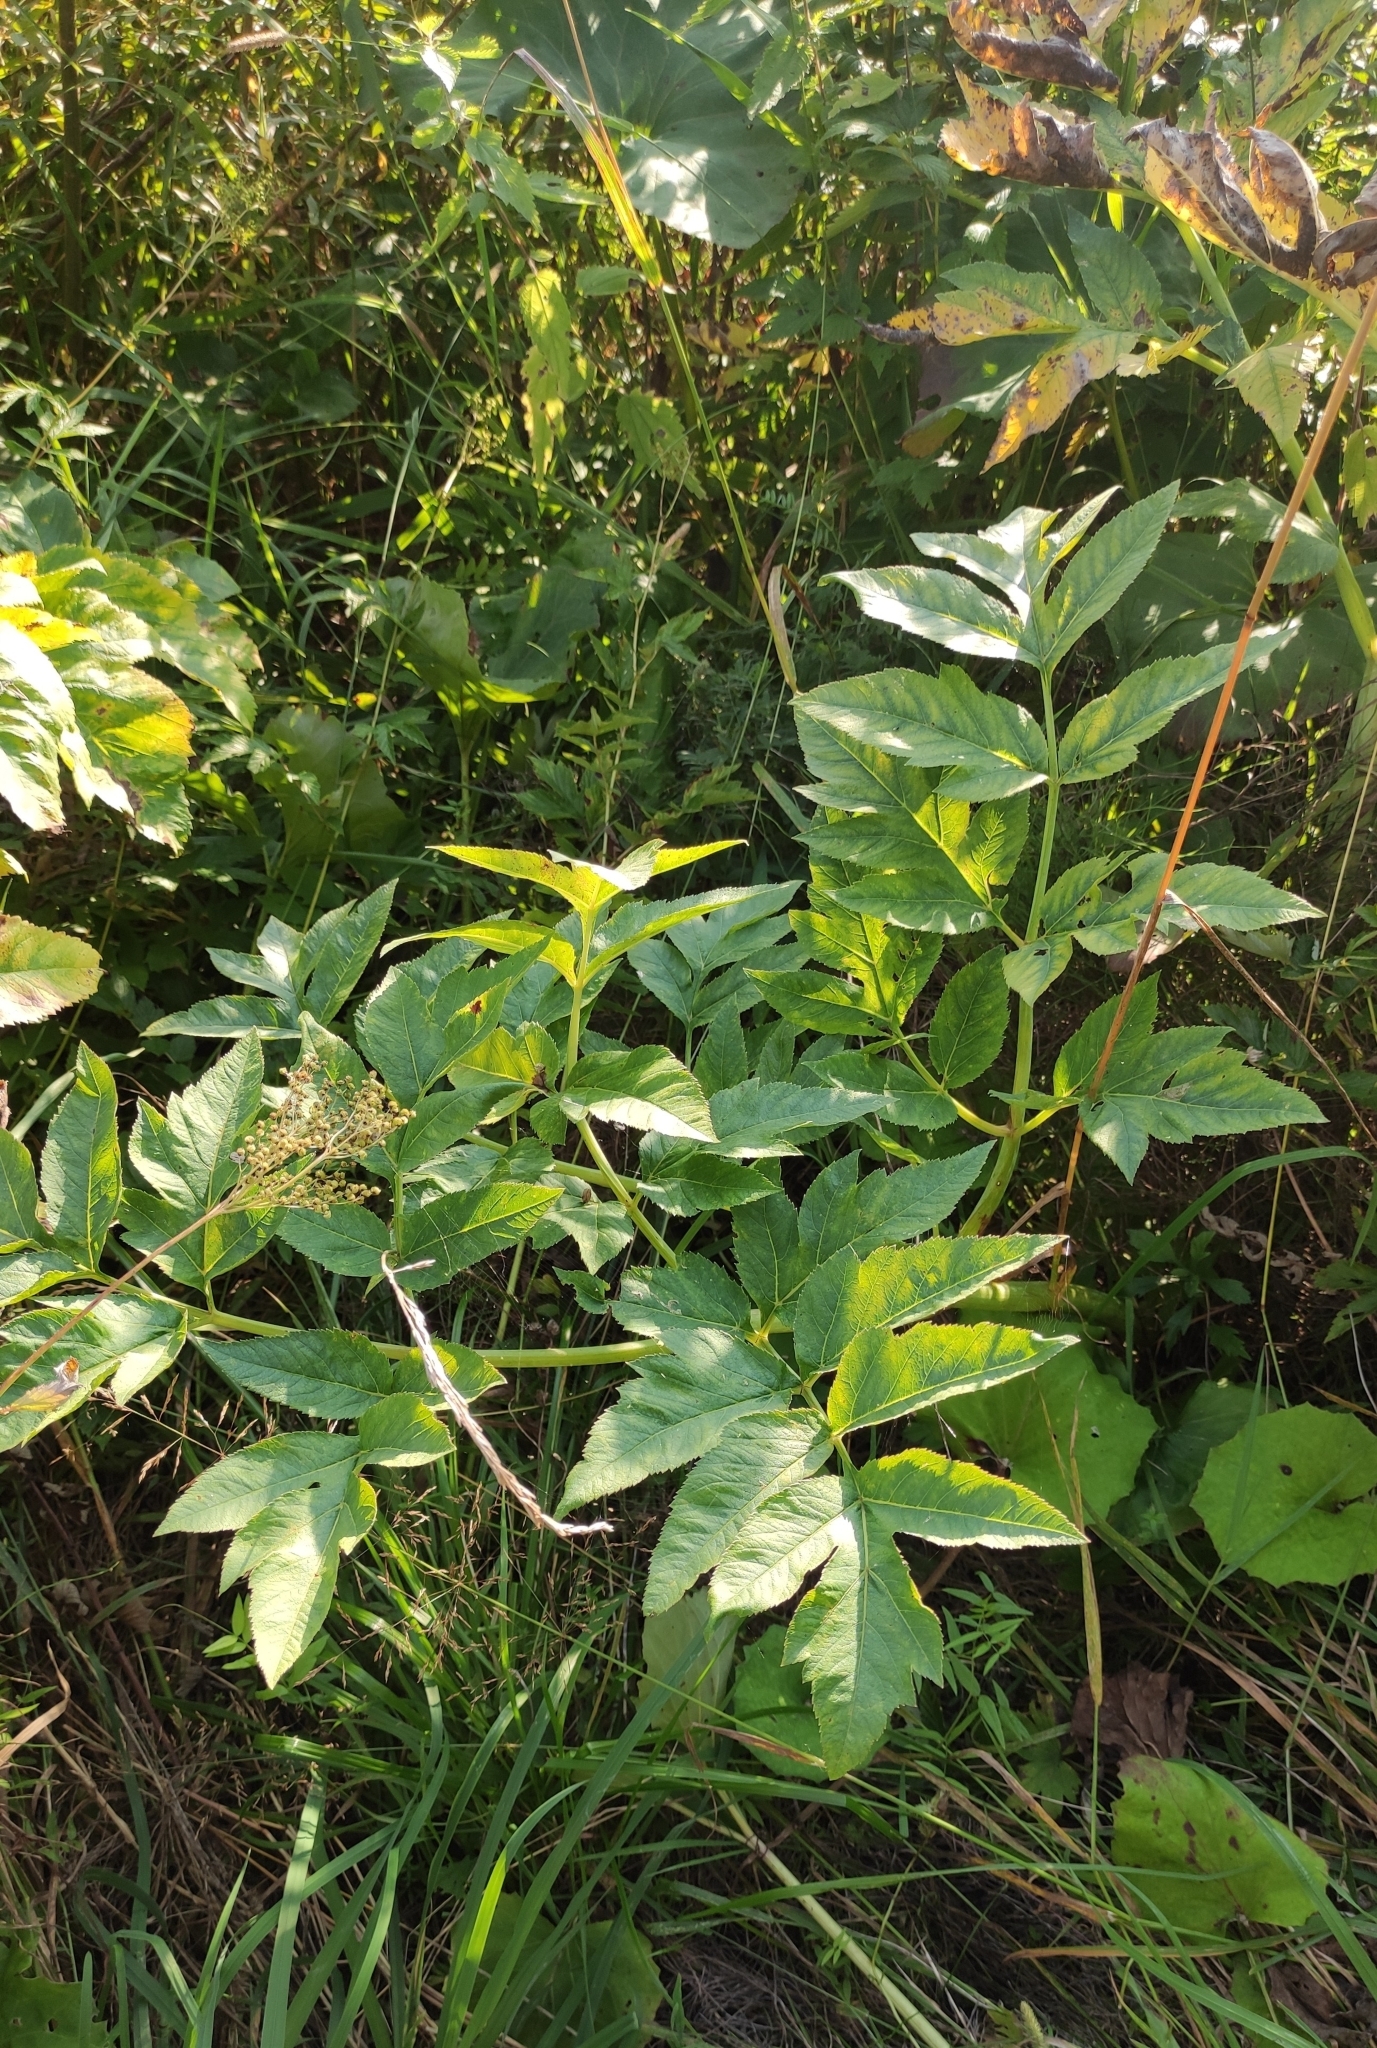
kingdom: Plantae
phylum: Tracheophyta
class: Magnoliopsida
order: Apiales
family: Apiaceae
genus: Angelica
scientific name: Angelica decurrens
